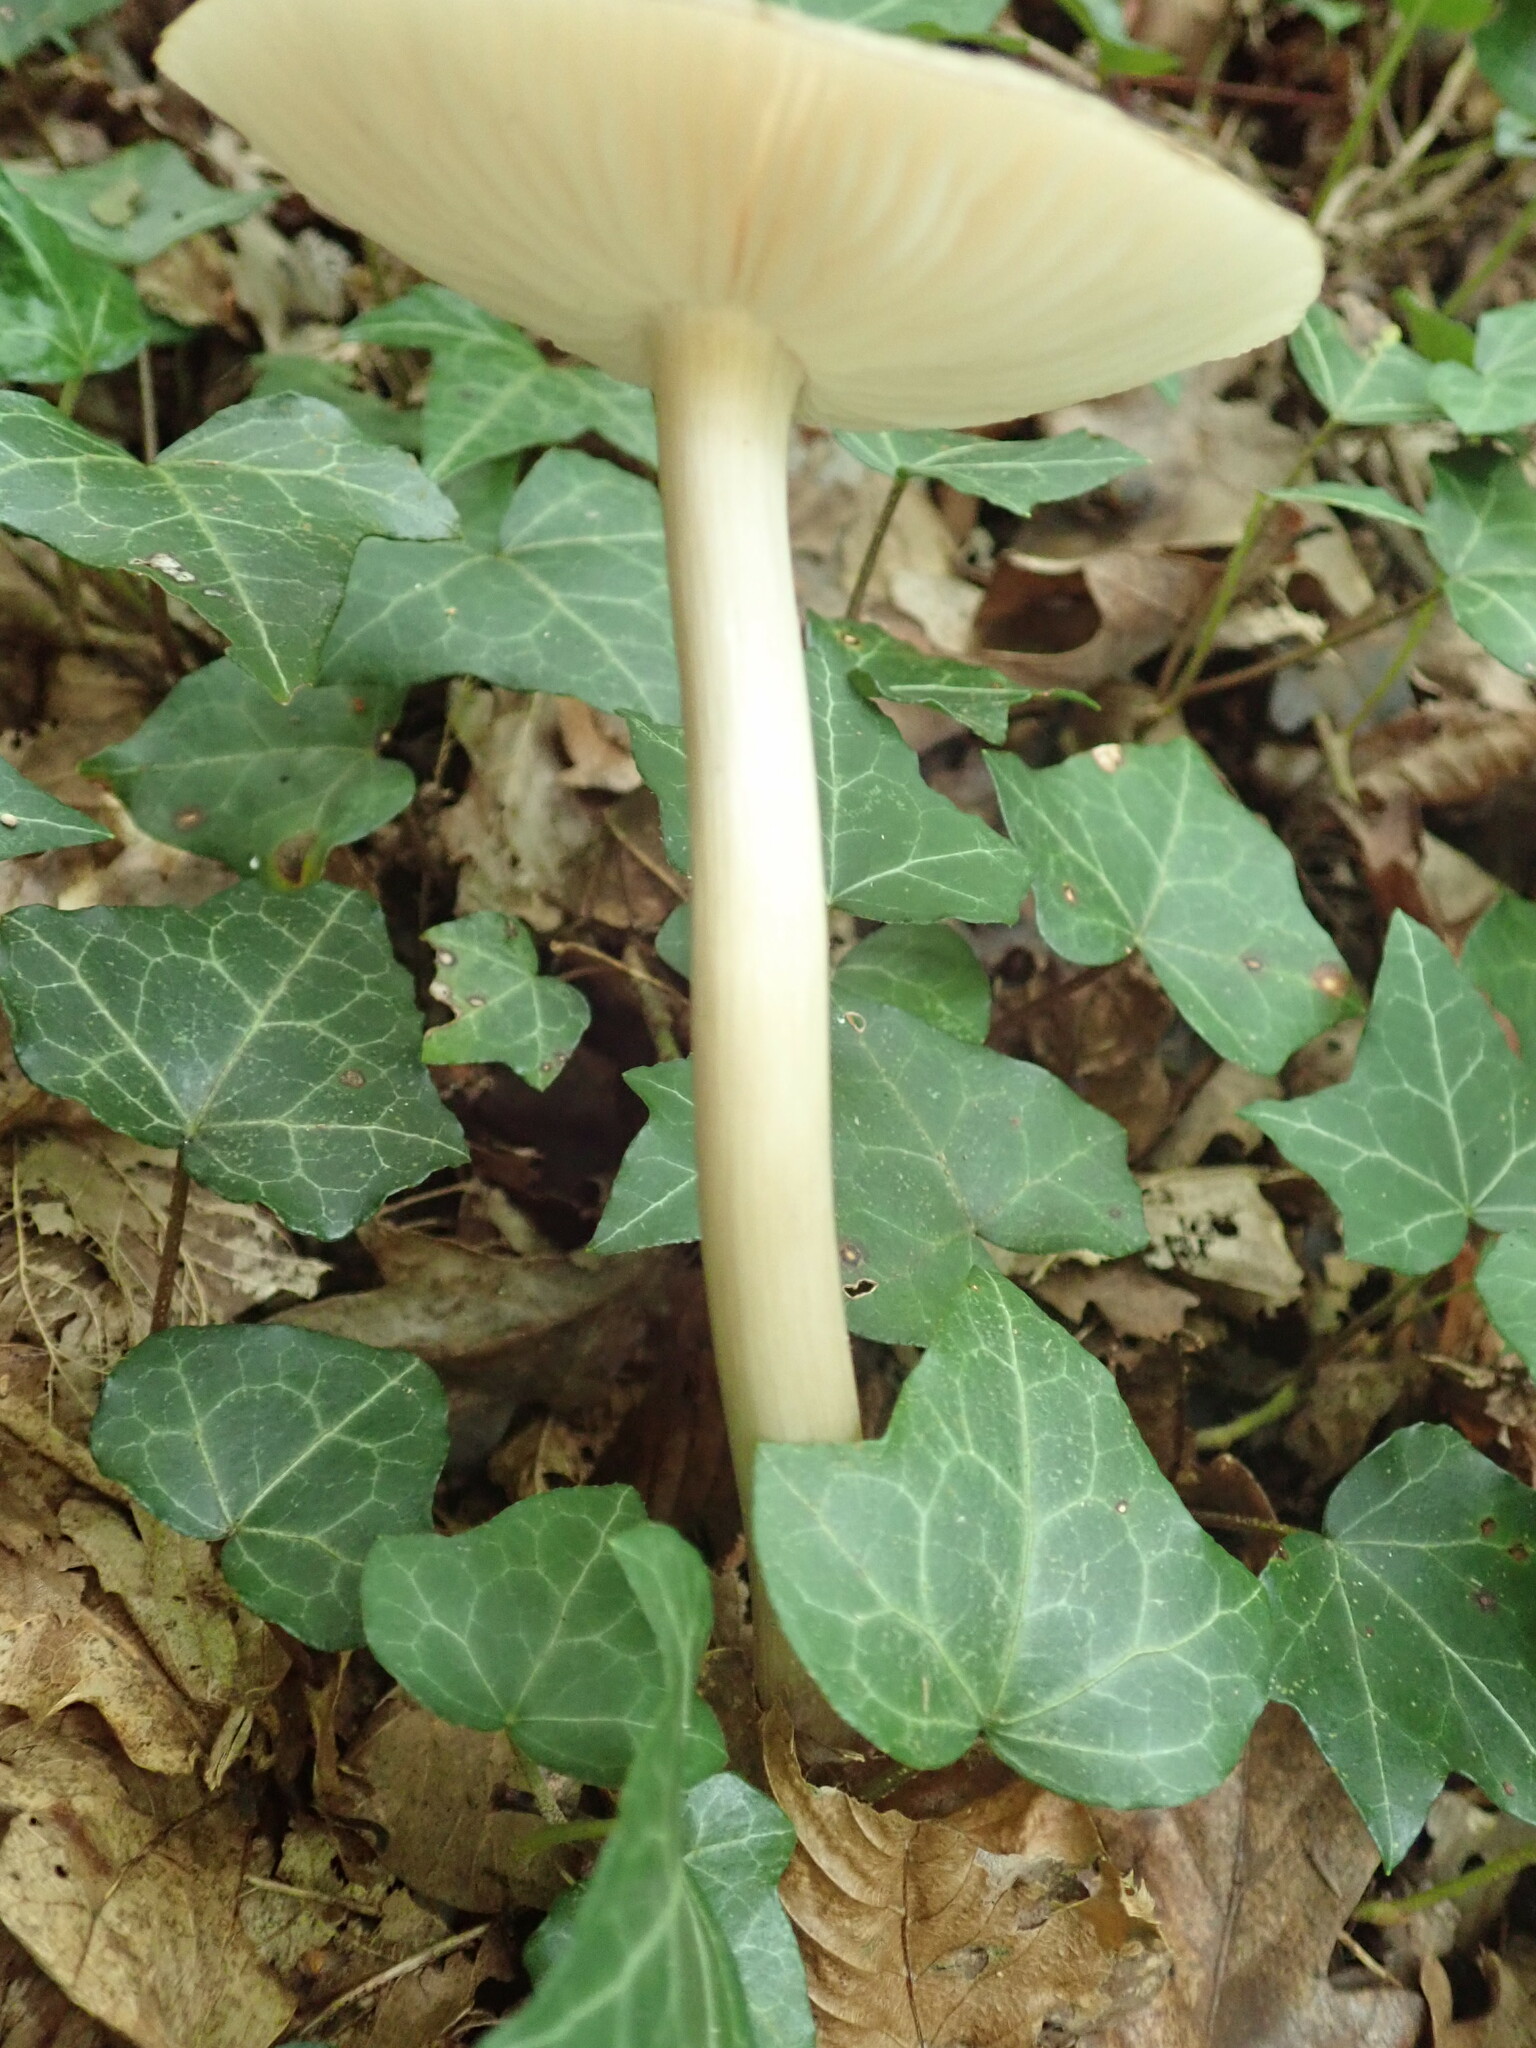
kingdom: Fungi
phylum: Basidiomycota
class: Agaricomycetes
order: Agaricales
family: Tricholomataceae
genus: Megacollybia
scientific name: Megacollybia platyphylla
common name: Whitelaced shank
